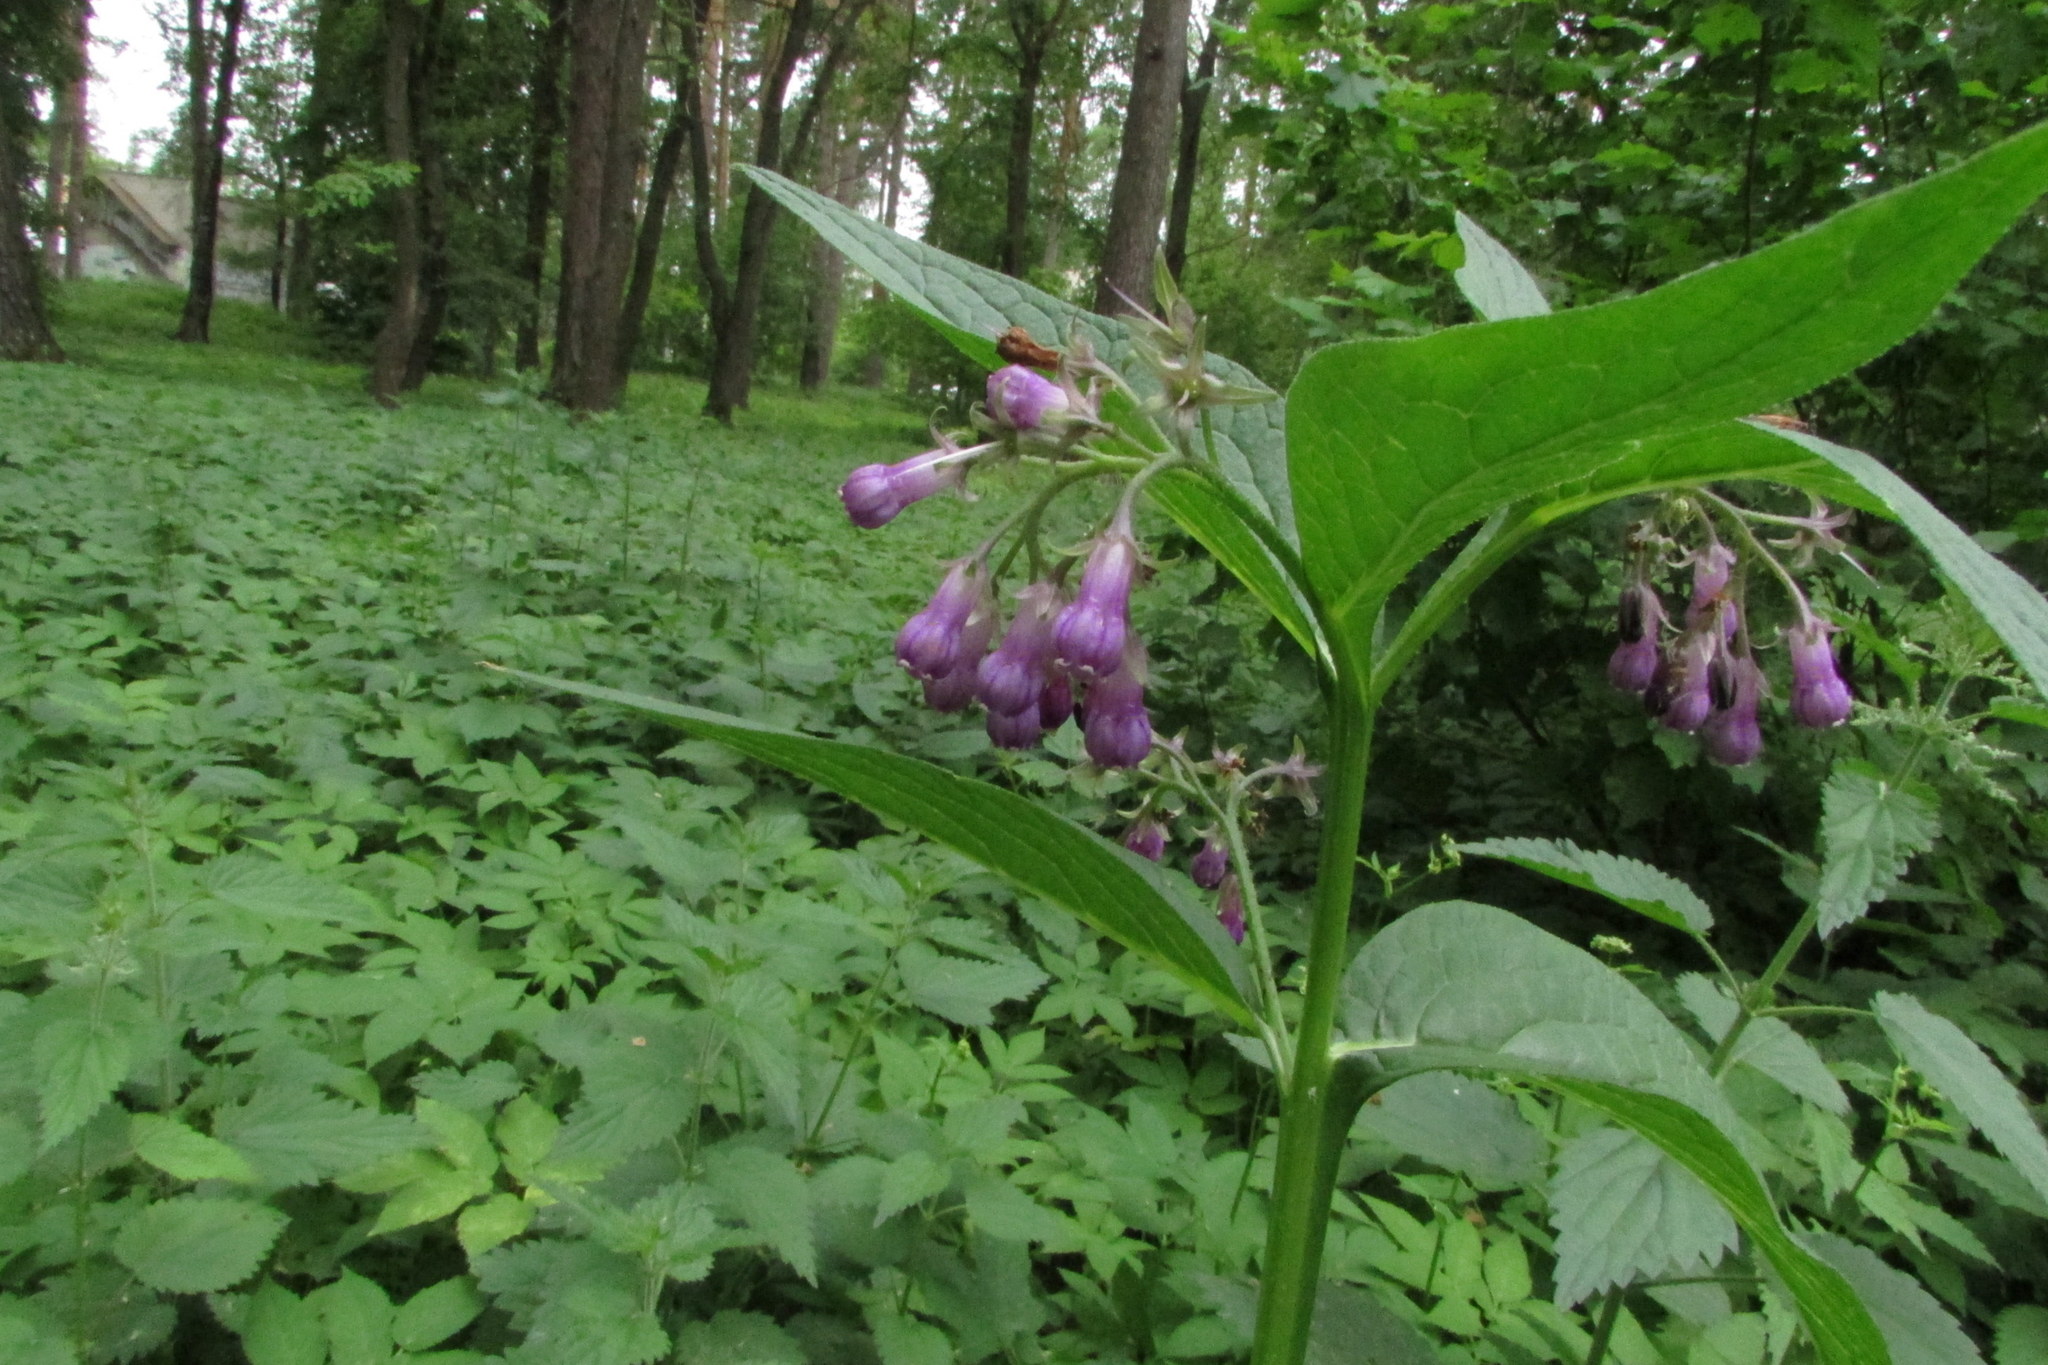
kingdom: Plantae
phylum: Tracheophyta
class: Magnoliopsida
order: Boraginales
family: Boraginaceae
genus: Symphytum
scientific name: Symphytum officinale
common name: Common comfrey
